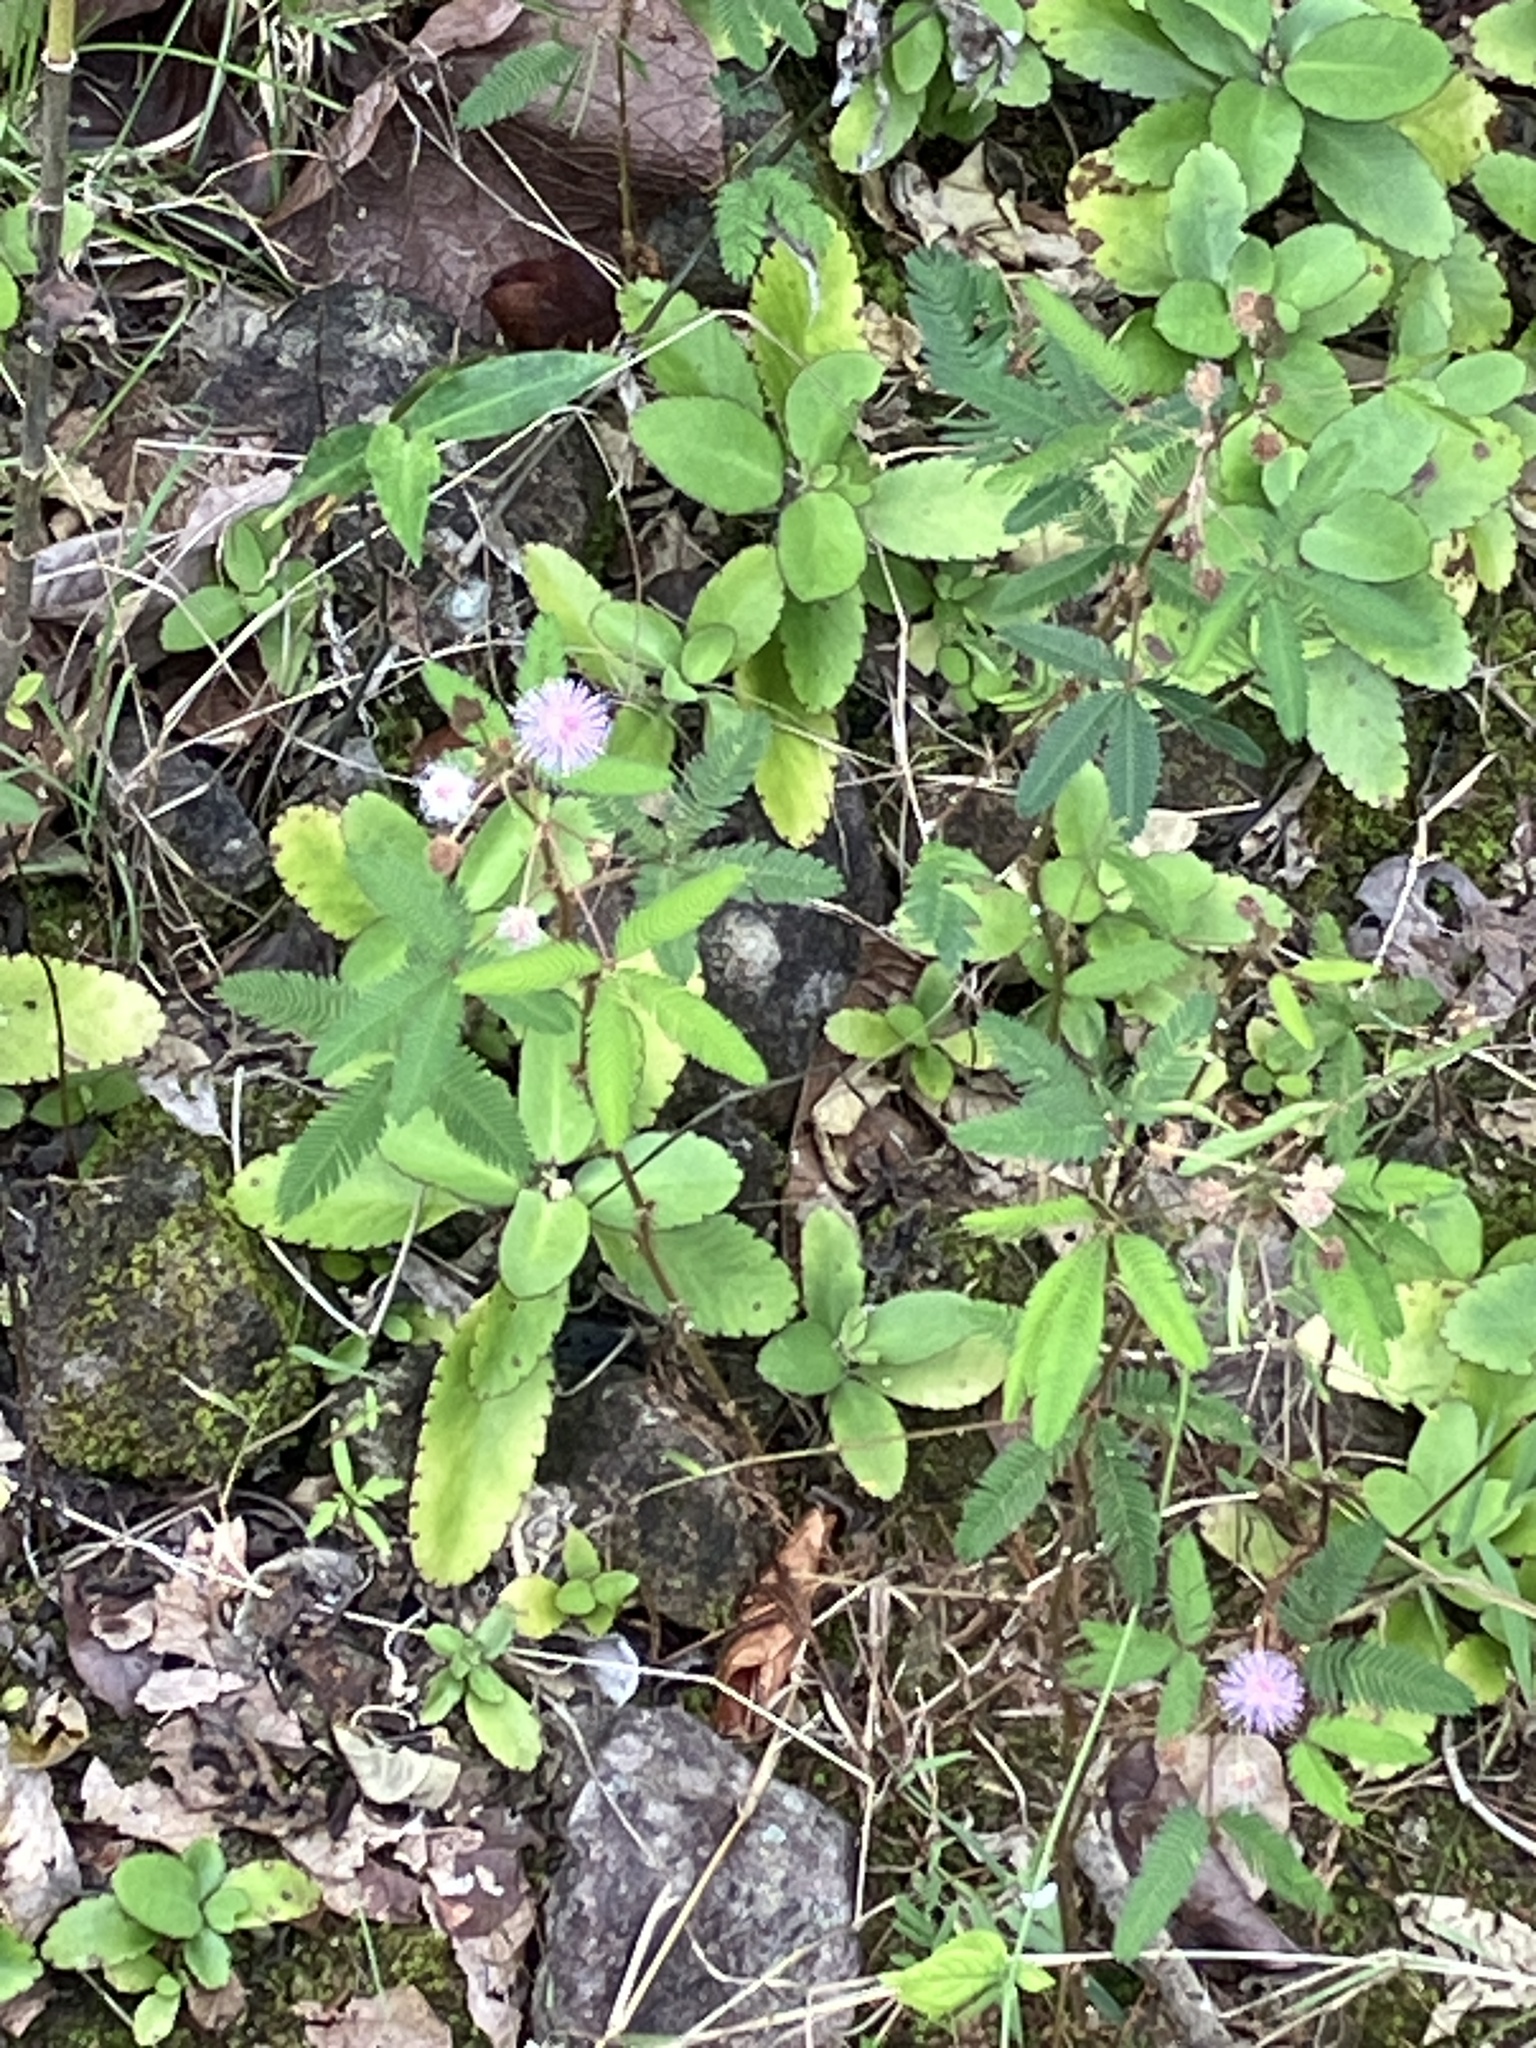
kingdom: Plantae
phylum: Tracheophyta
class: Magnoliopsida
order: Fabales
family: Fabaceae
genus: Mimosa
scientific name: Mimosa pudica
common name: Sensitive plant
